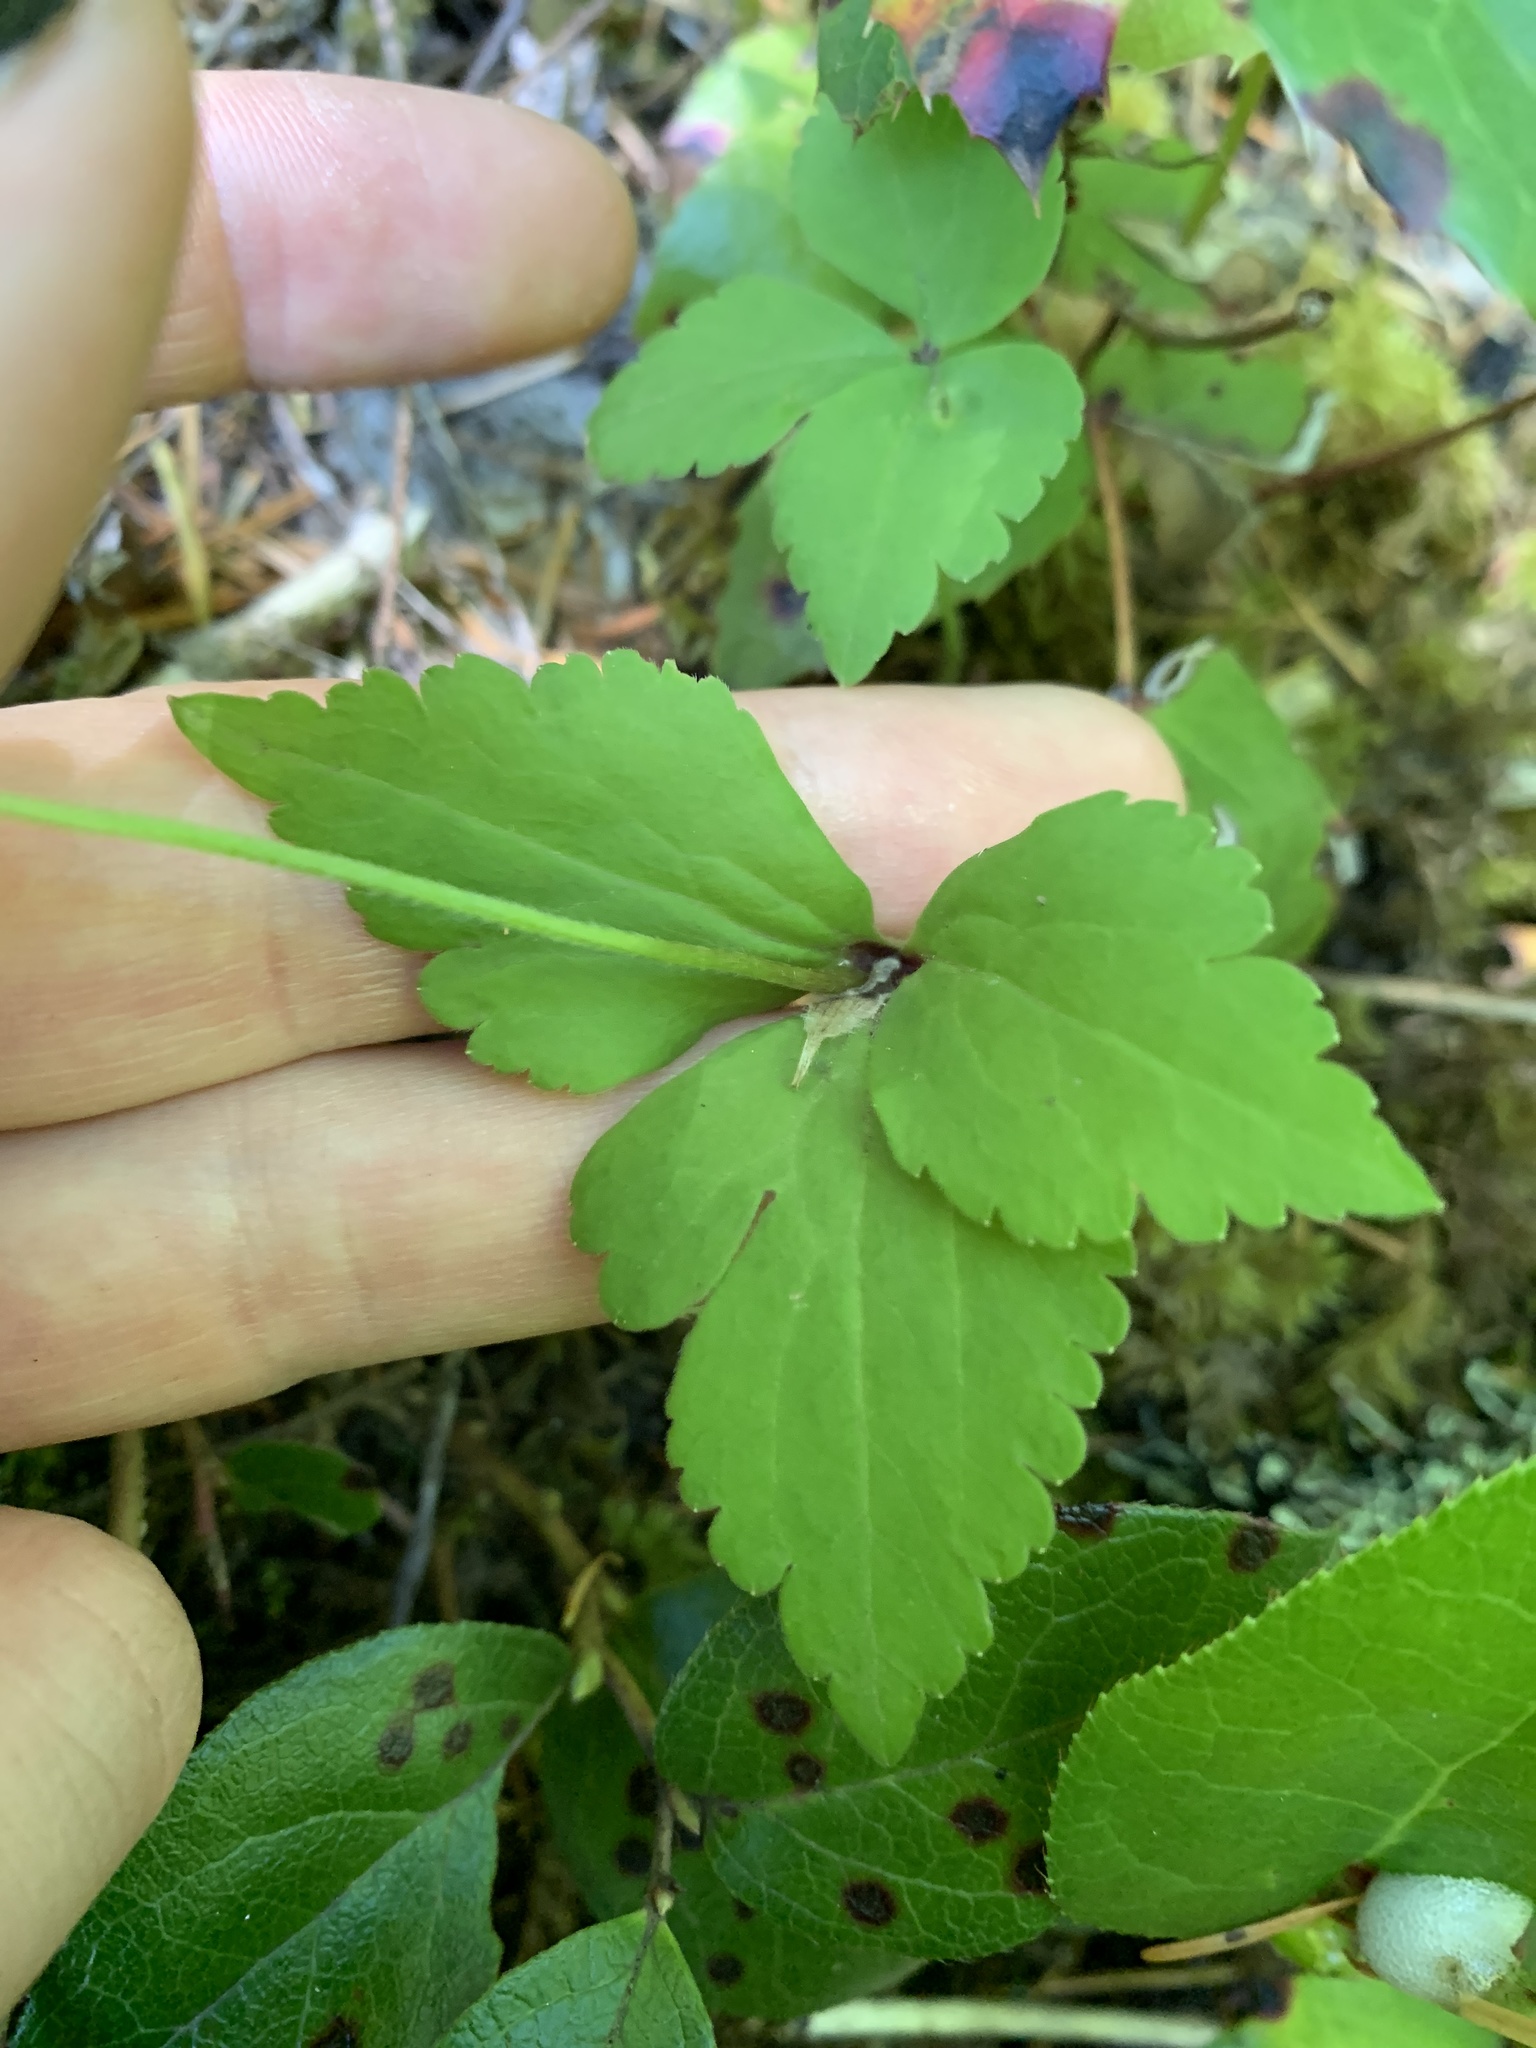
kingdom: Plantae
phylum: Tracheophyta
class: Magnoliopsida
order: Ranunculales
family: Ranunculaceae
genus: Anemonastrum
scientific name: Anemonastrum deltoideum
